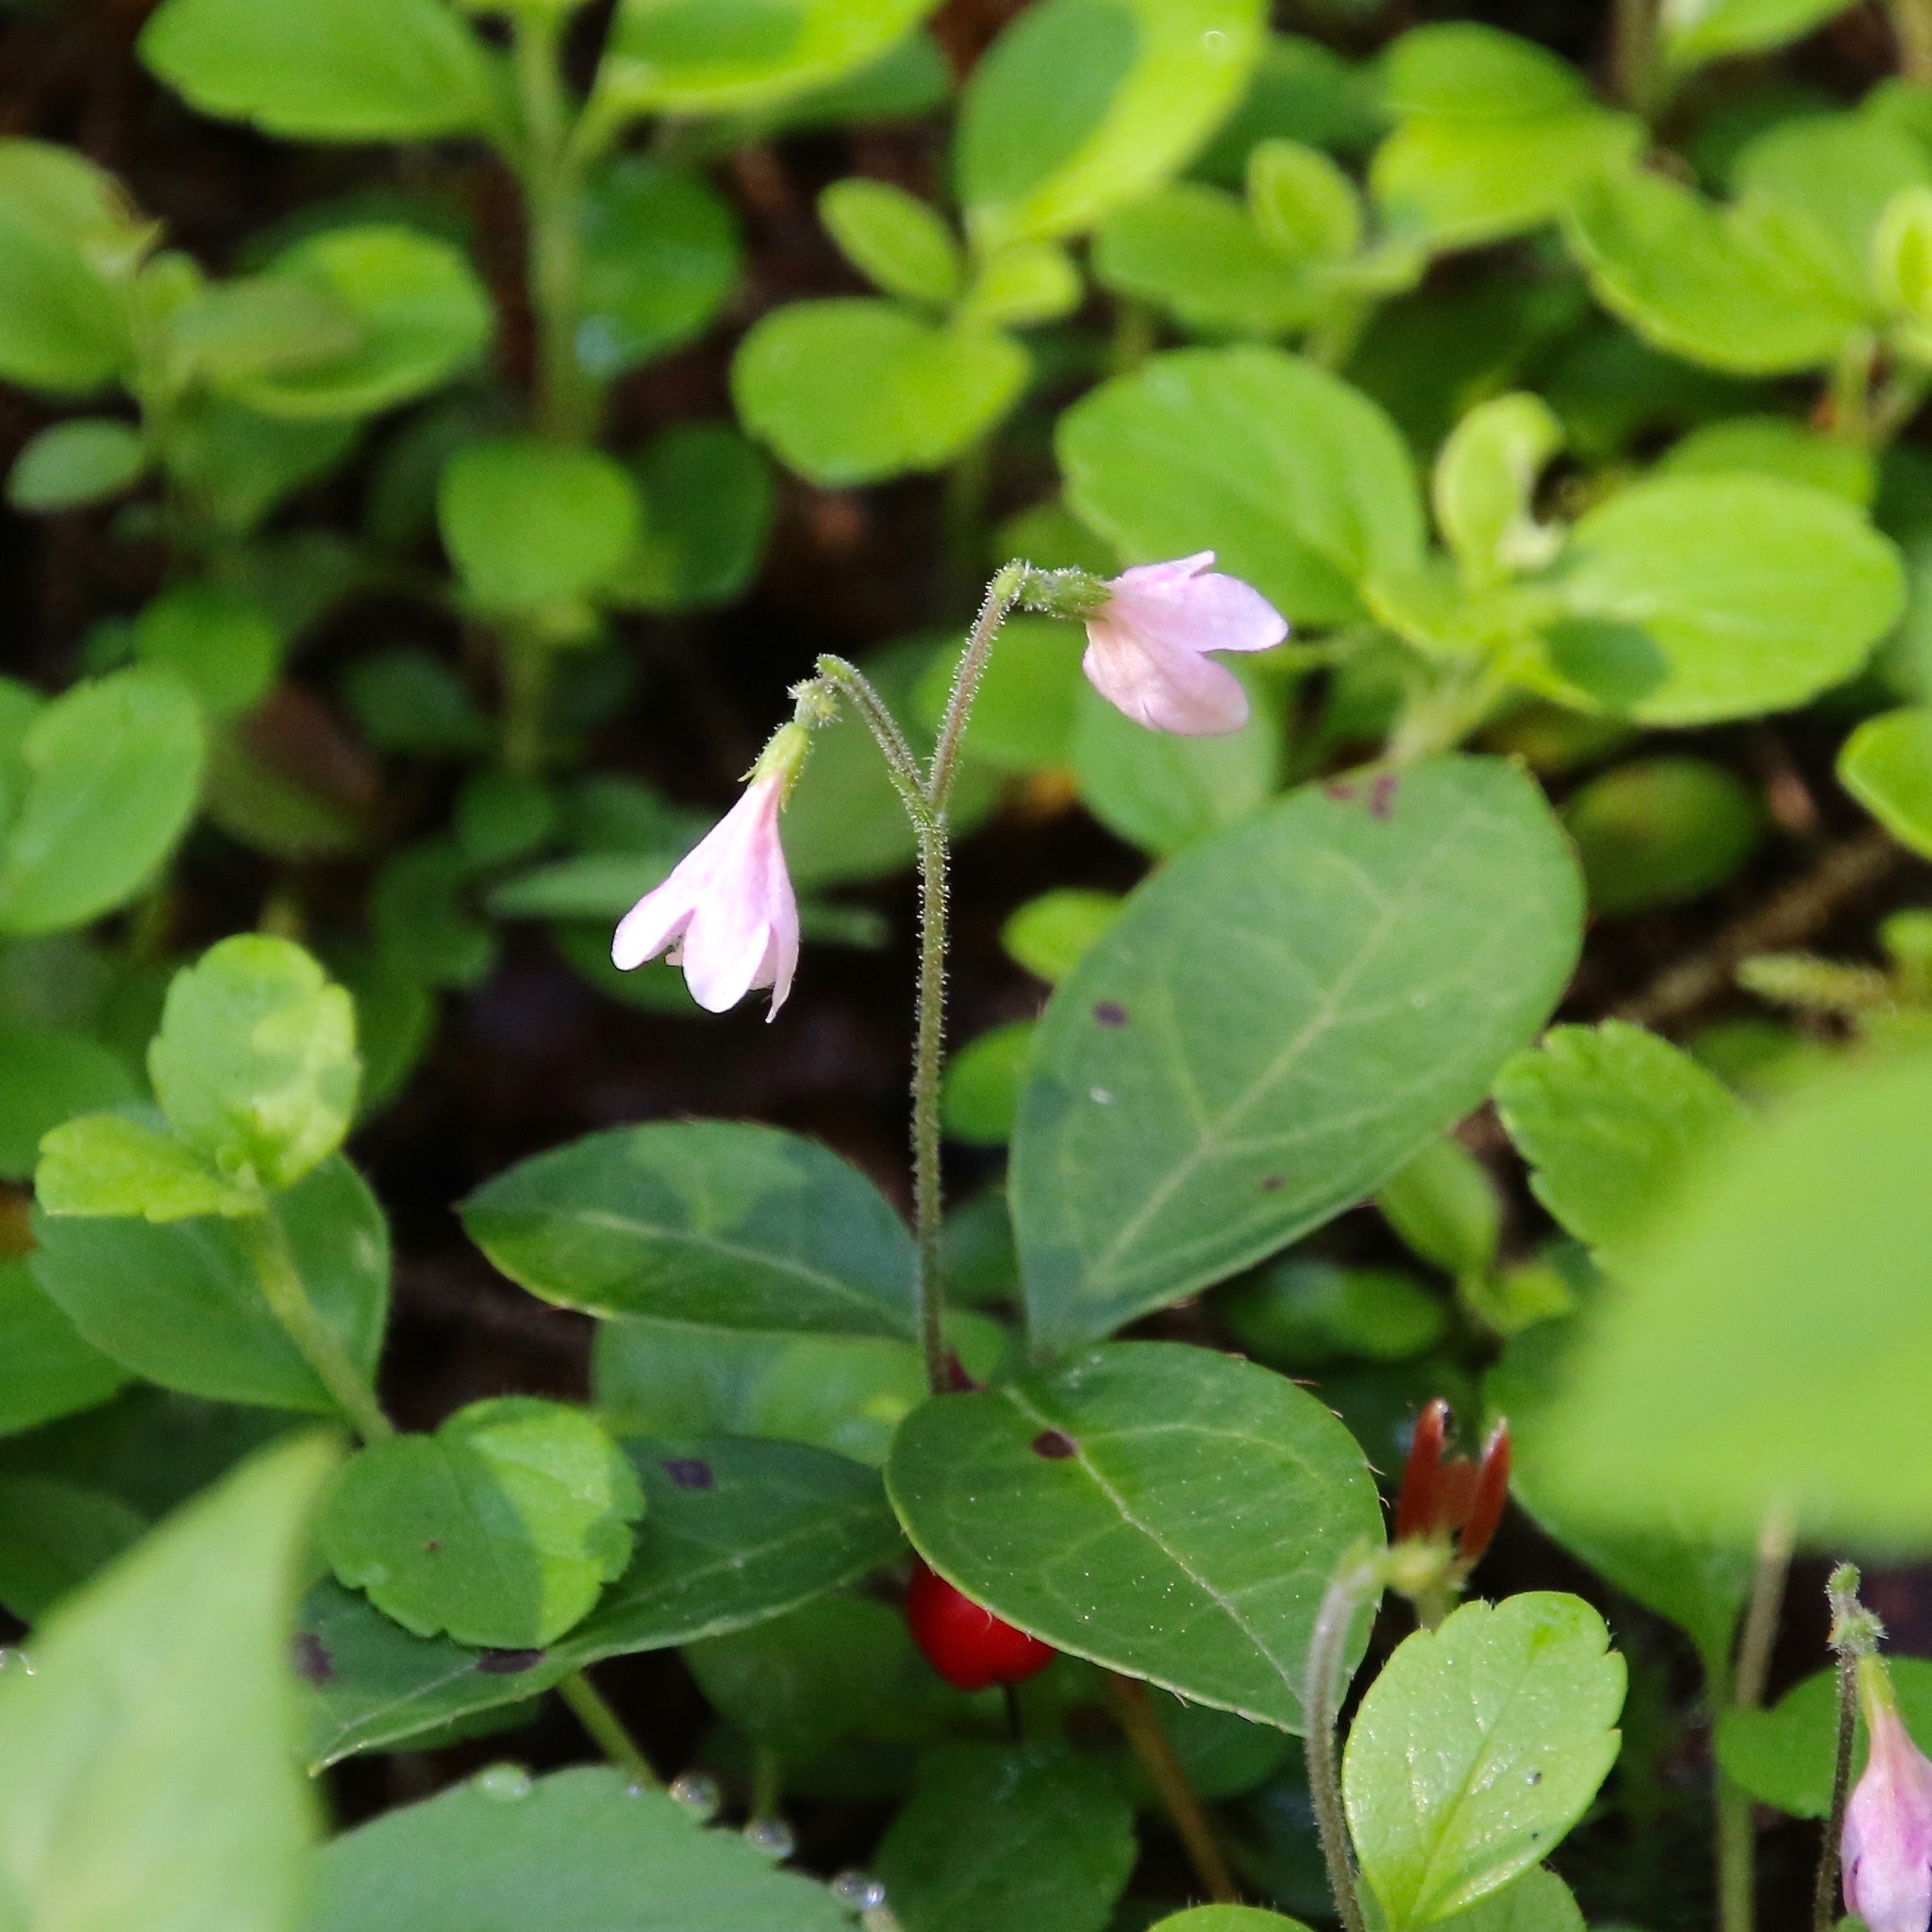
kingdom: Plantae
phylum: Tracheophyta
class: Magnoliopsida
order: Dipsacales
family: Caprifoliaceae
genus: Linnaea
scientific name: Linnaea borealis
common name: Twinflower
